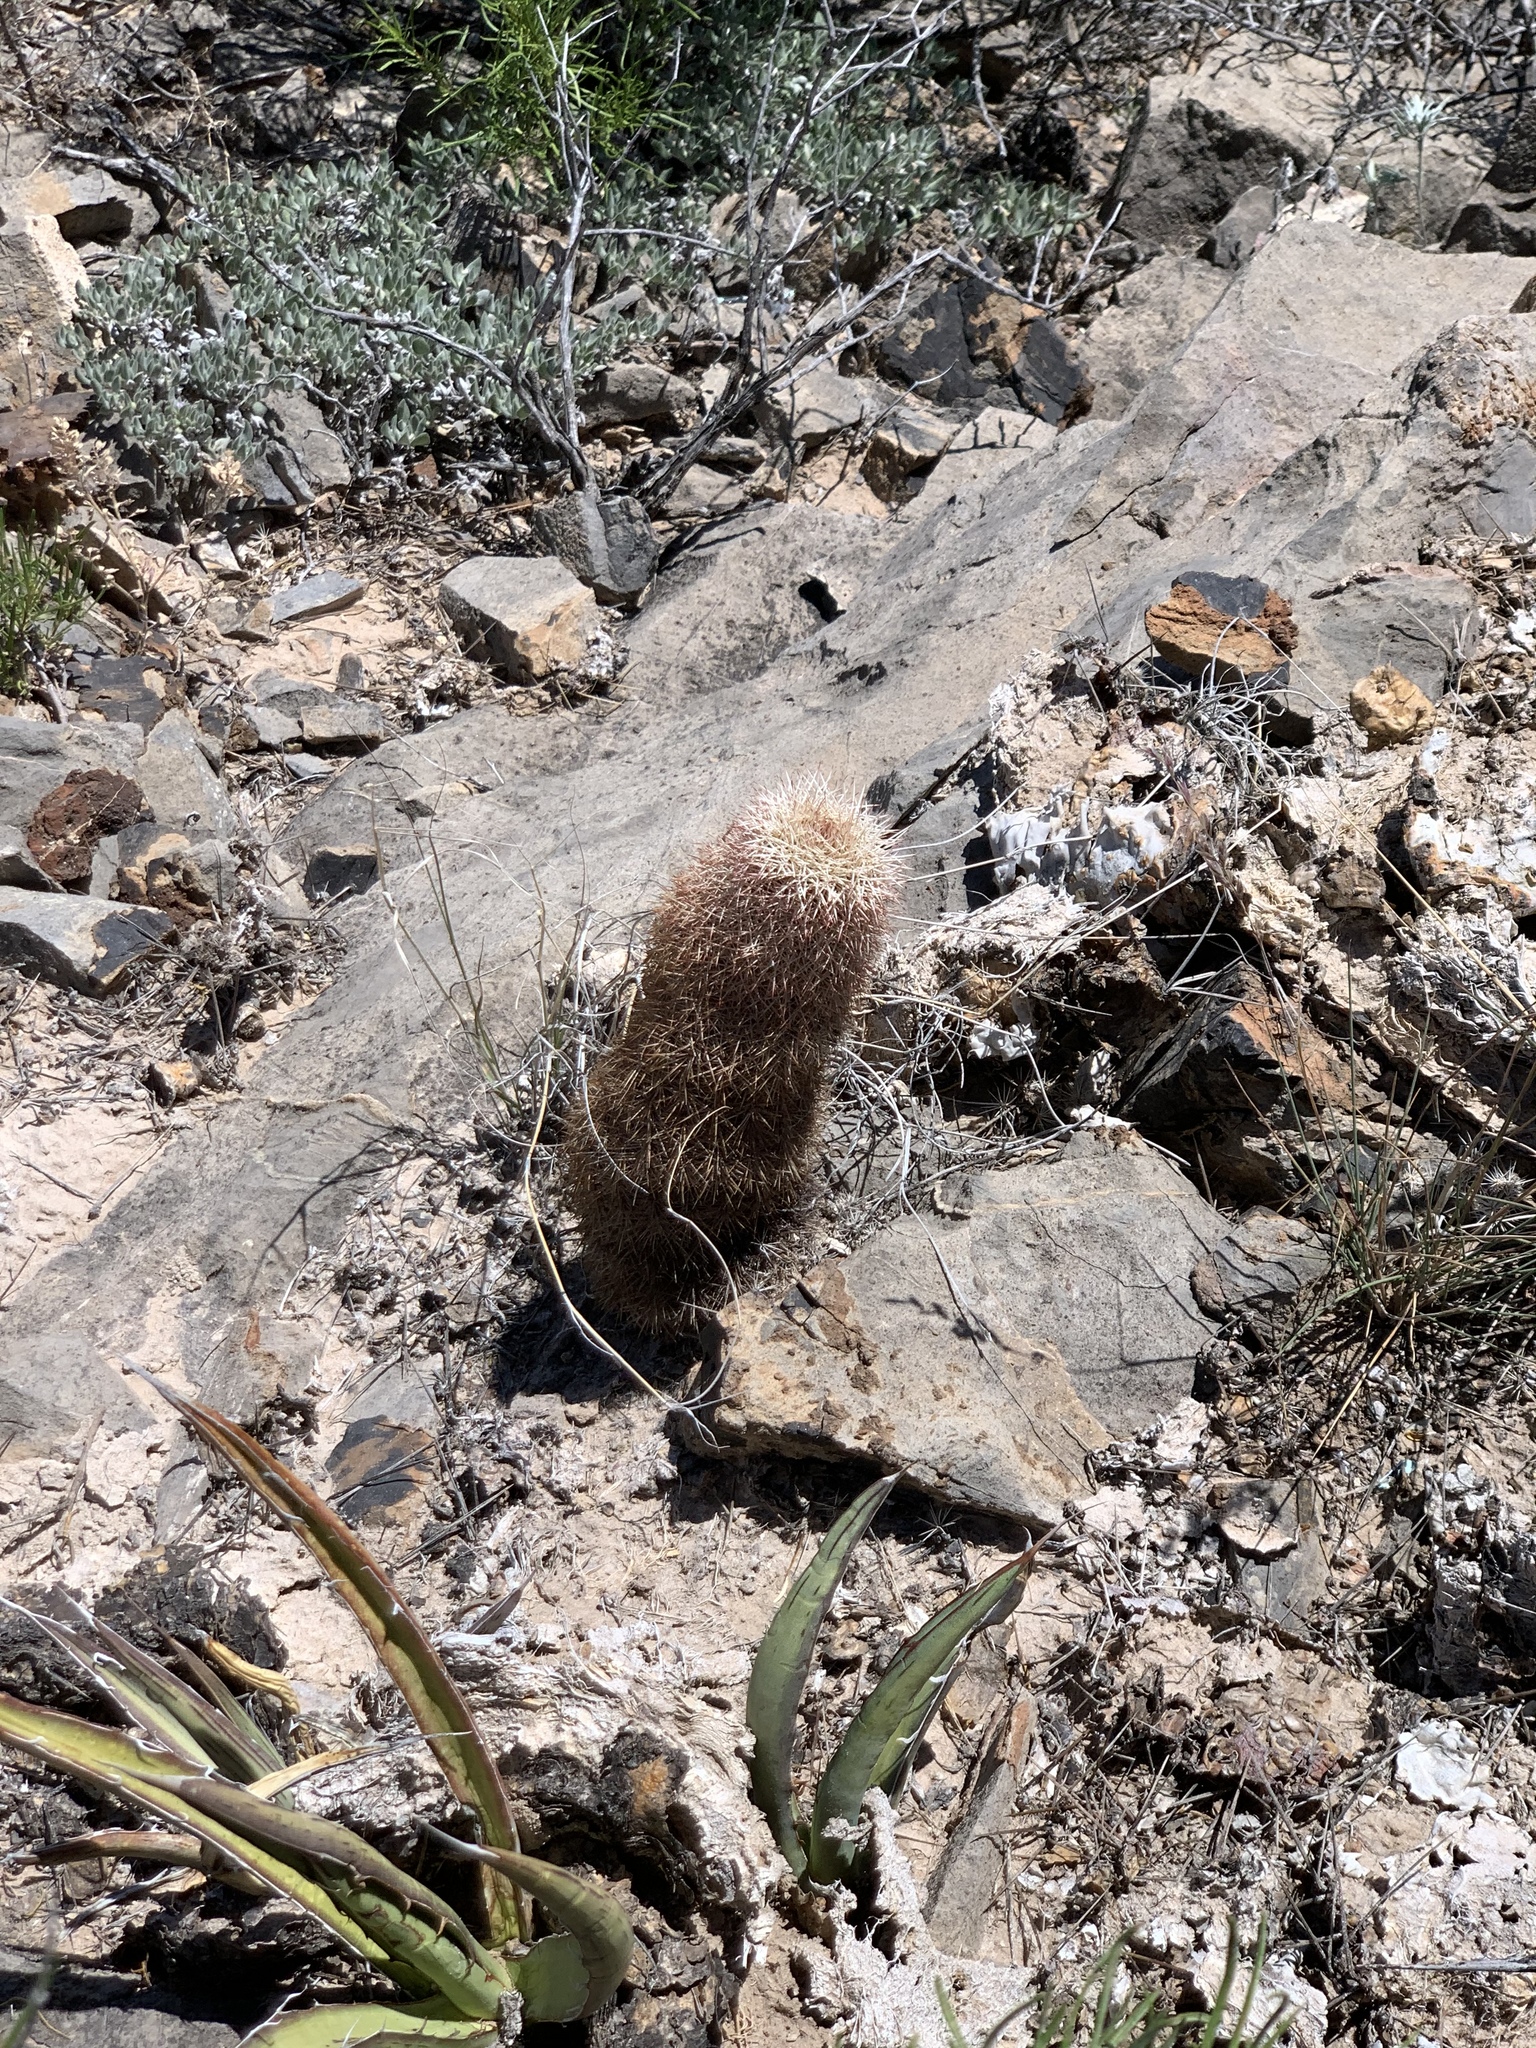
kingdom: Plantae
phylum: Tracheophyta
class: Magnoliopsida
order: Caryophyllales
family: Cactaceae
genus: Echinocereus
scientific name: Echinocereus dasyacanthus
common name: Spiny hedgehog cactus
